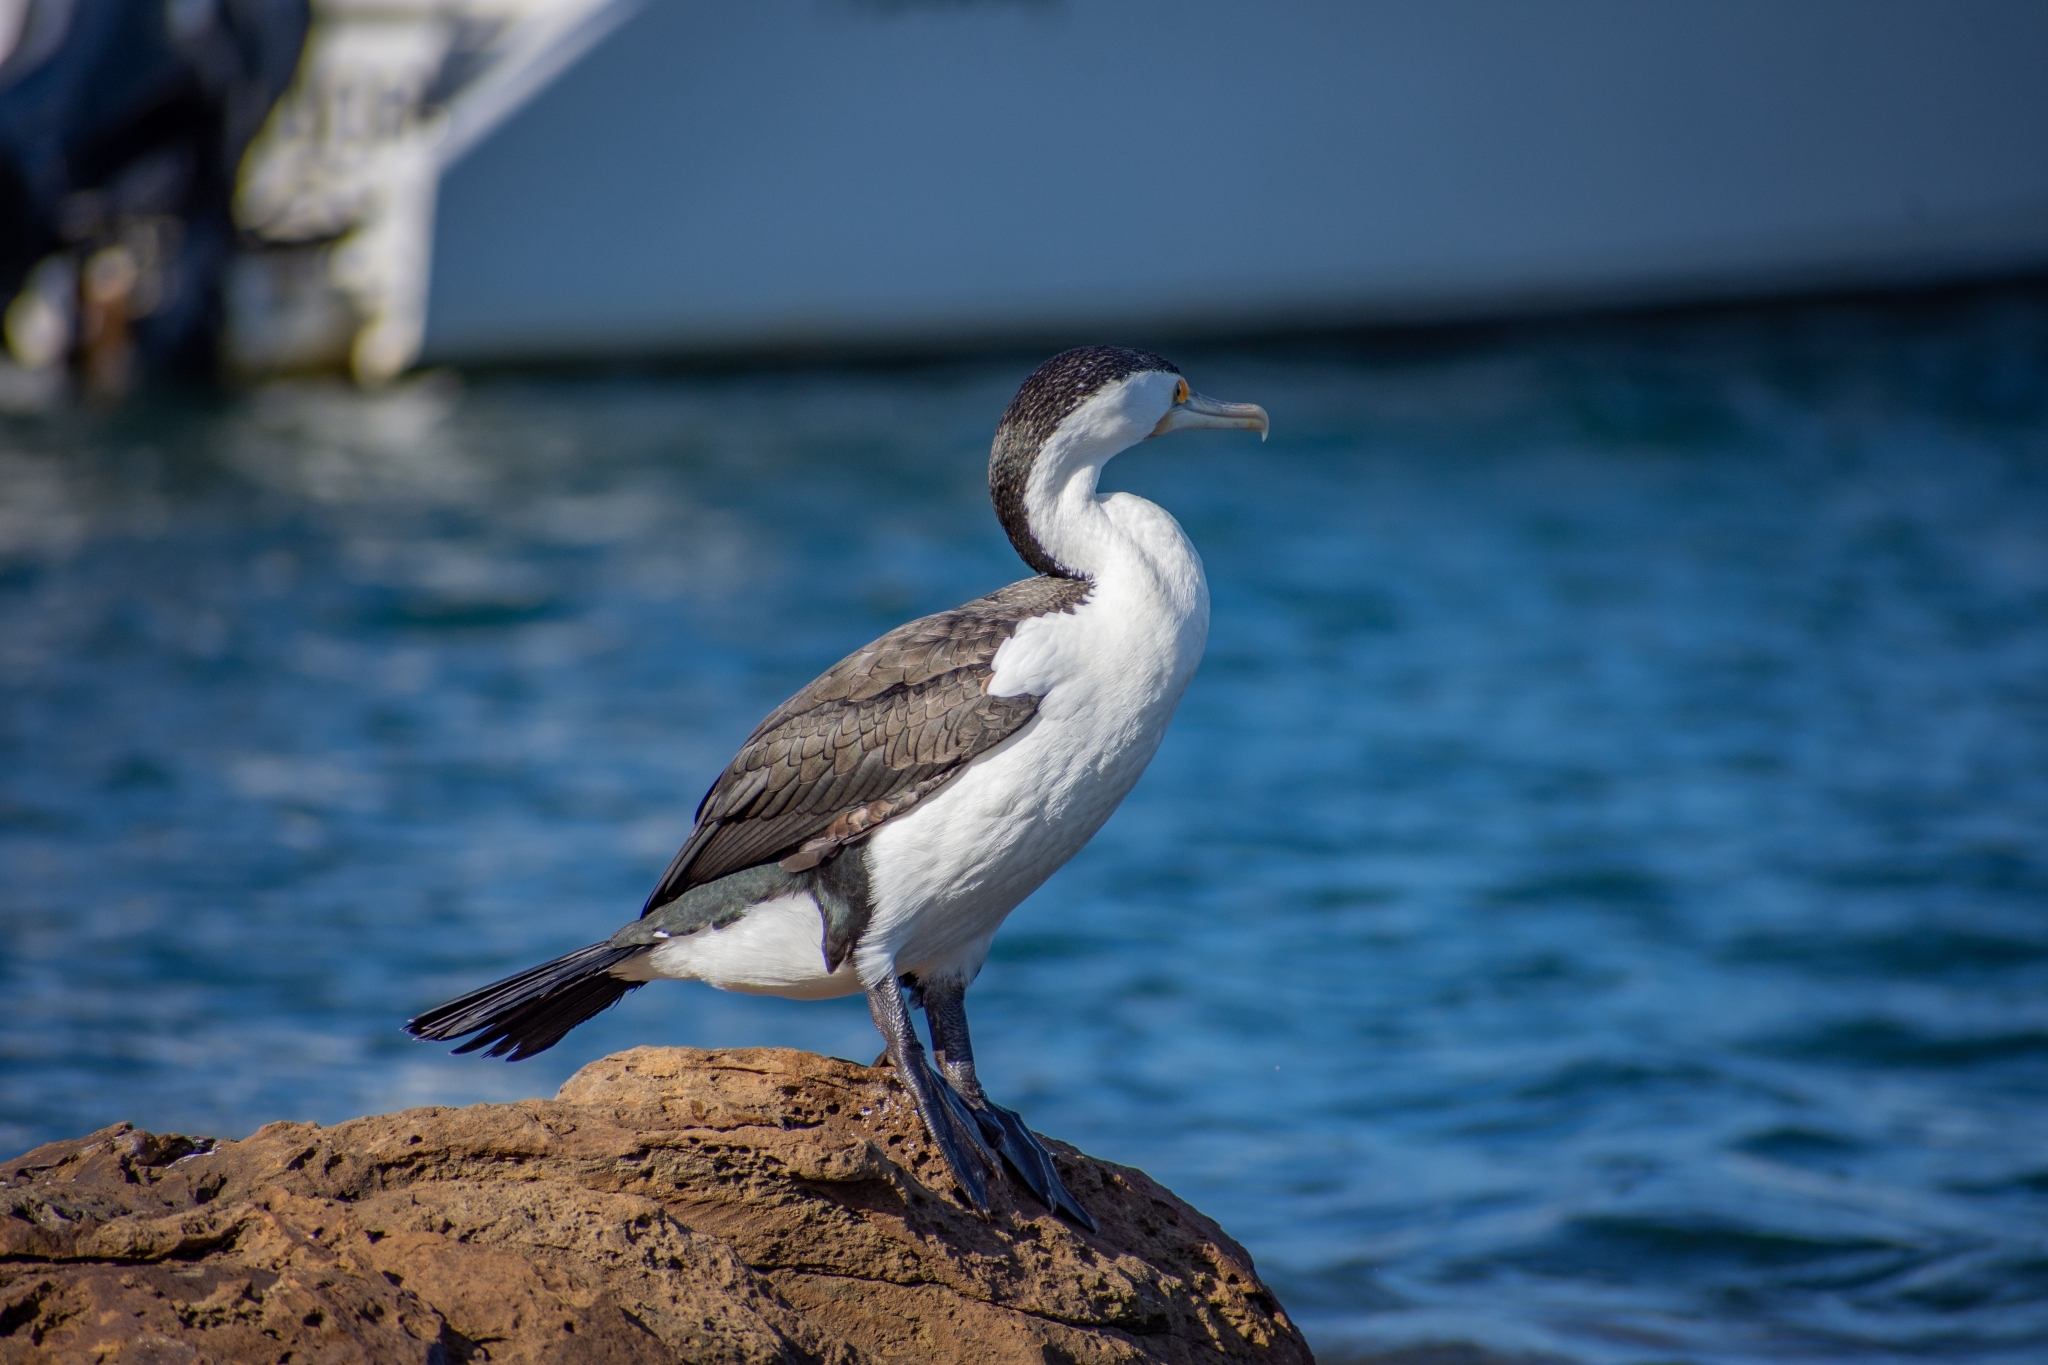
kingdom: Animalia
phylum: Chordata
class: Aves
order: Suliformes
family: Phalacrocoracidae
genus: Phalacrocorax
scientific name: Phalacrocorax varius
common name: Pied cormorant
